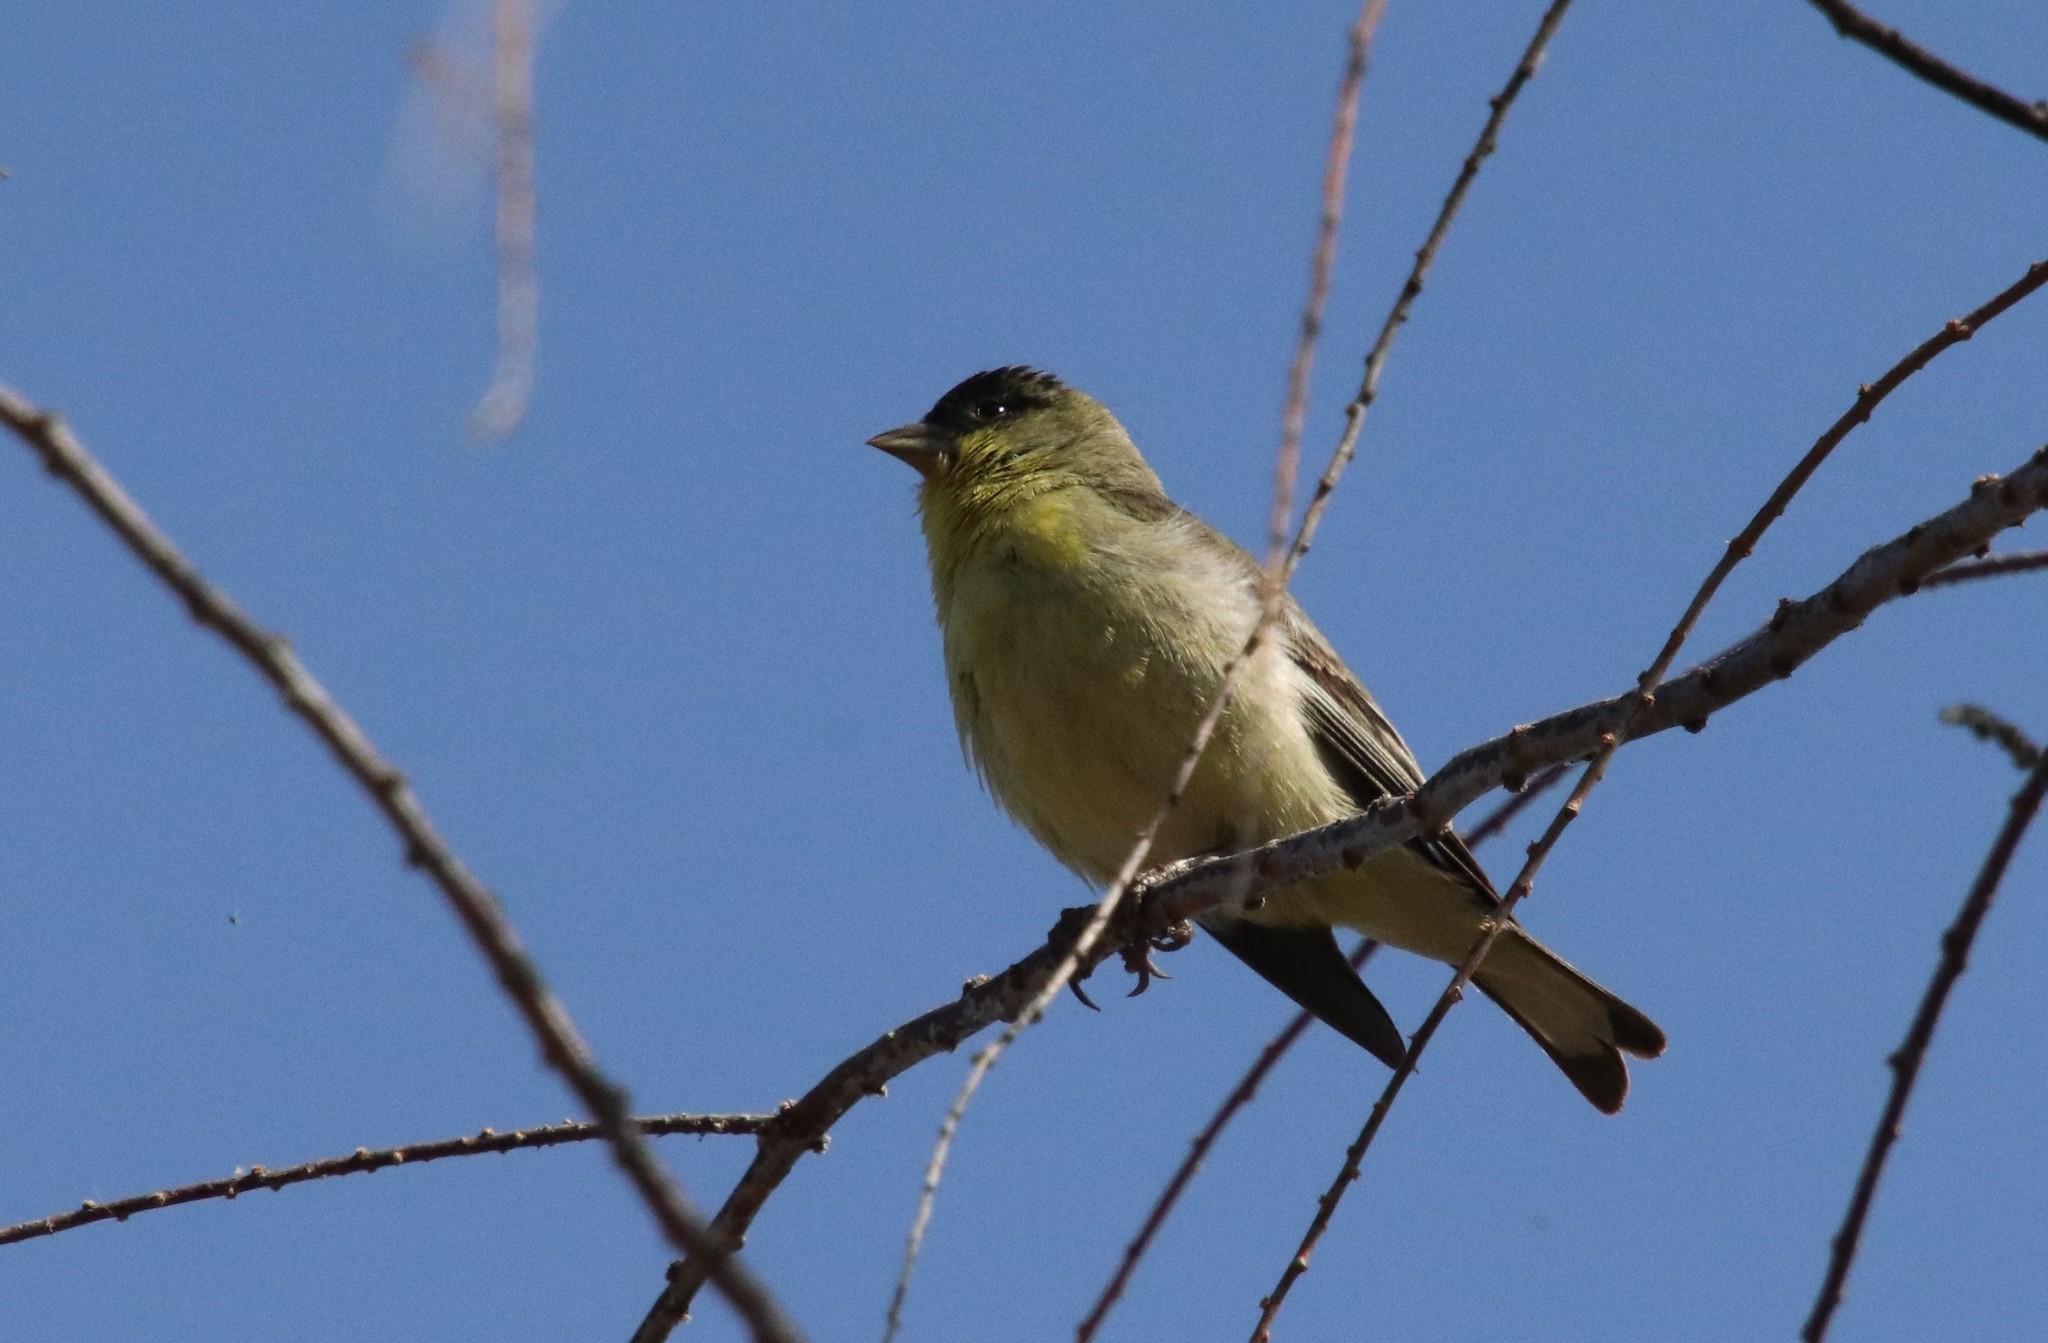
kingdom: Animalia
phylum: Chordata
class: Aves
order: Passeriformes
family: Fringillidae
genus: Spinus
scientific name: Spinus psaltria
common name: Lesser goldfinch
